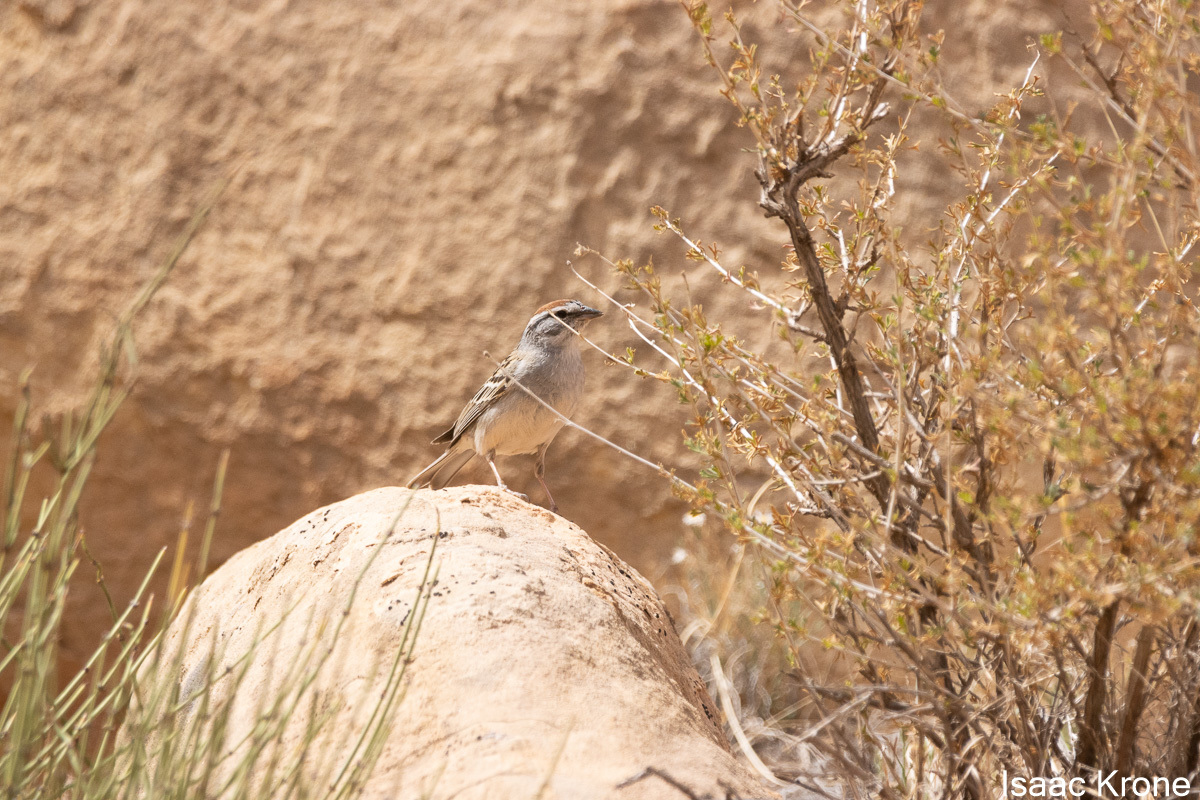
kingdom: Animalia
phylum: Chordata
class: Aves
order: Passeriformes
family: Passerellidae
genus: Spizella
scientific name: Spizella passerina
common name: Chipping sparrow
